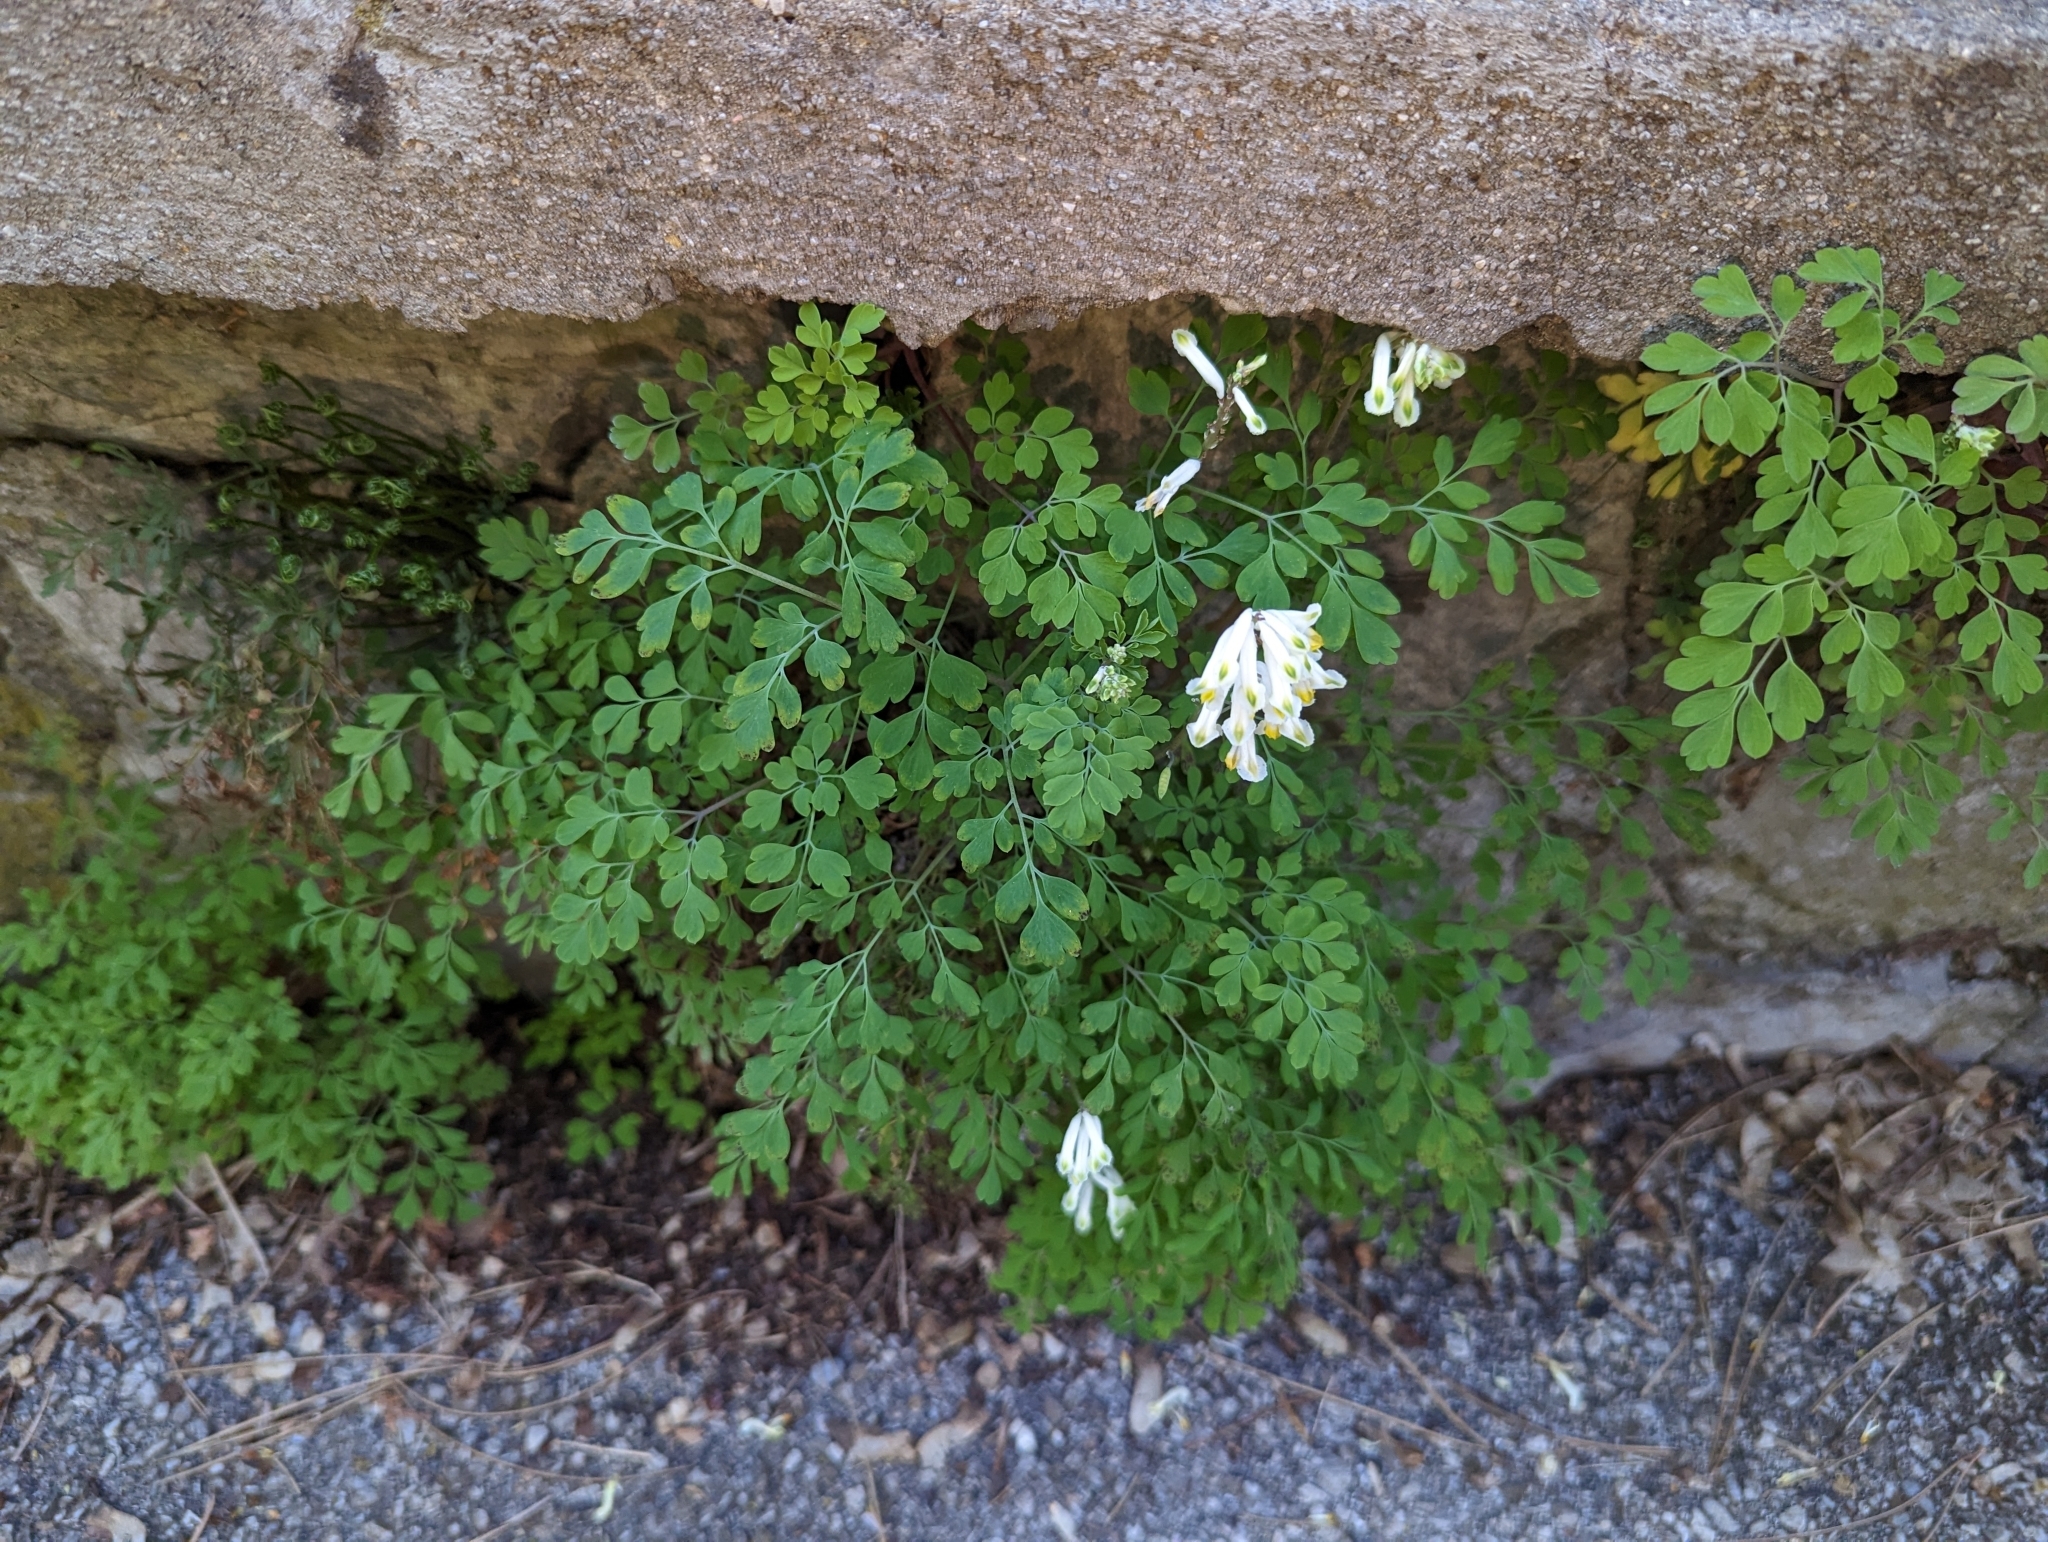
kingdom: Plantae
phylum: Tracheophyta
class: Magnoliopsida
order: Ranunculales
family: Papaveraceae
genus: Pseudofumaria
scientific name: Pseudofumaria alba
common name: Pale corydalis
